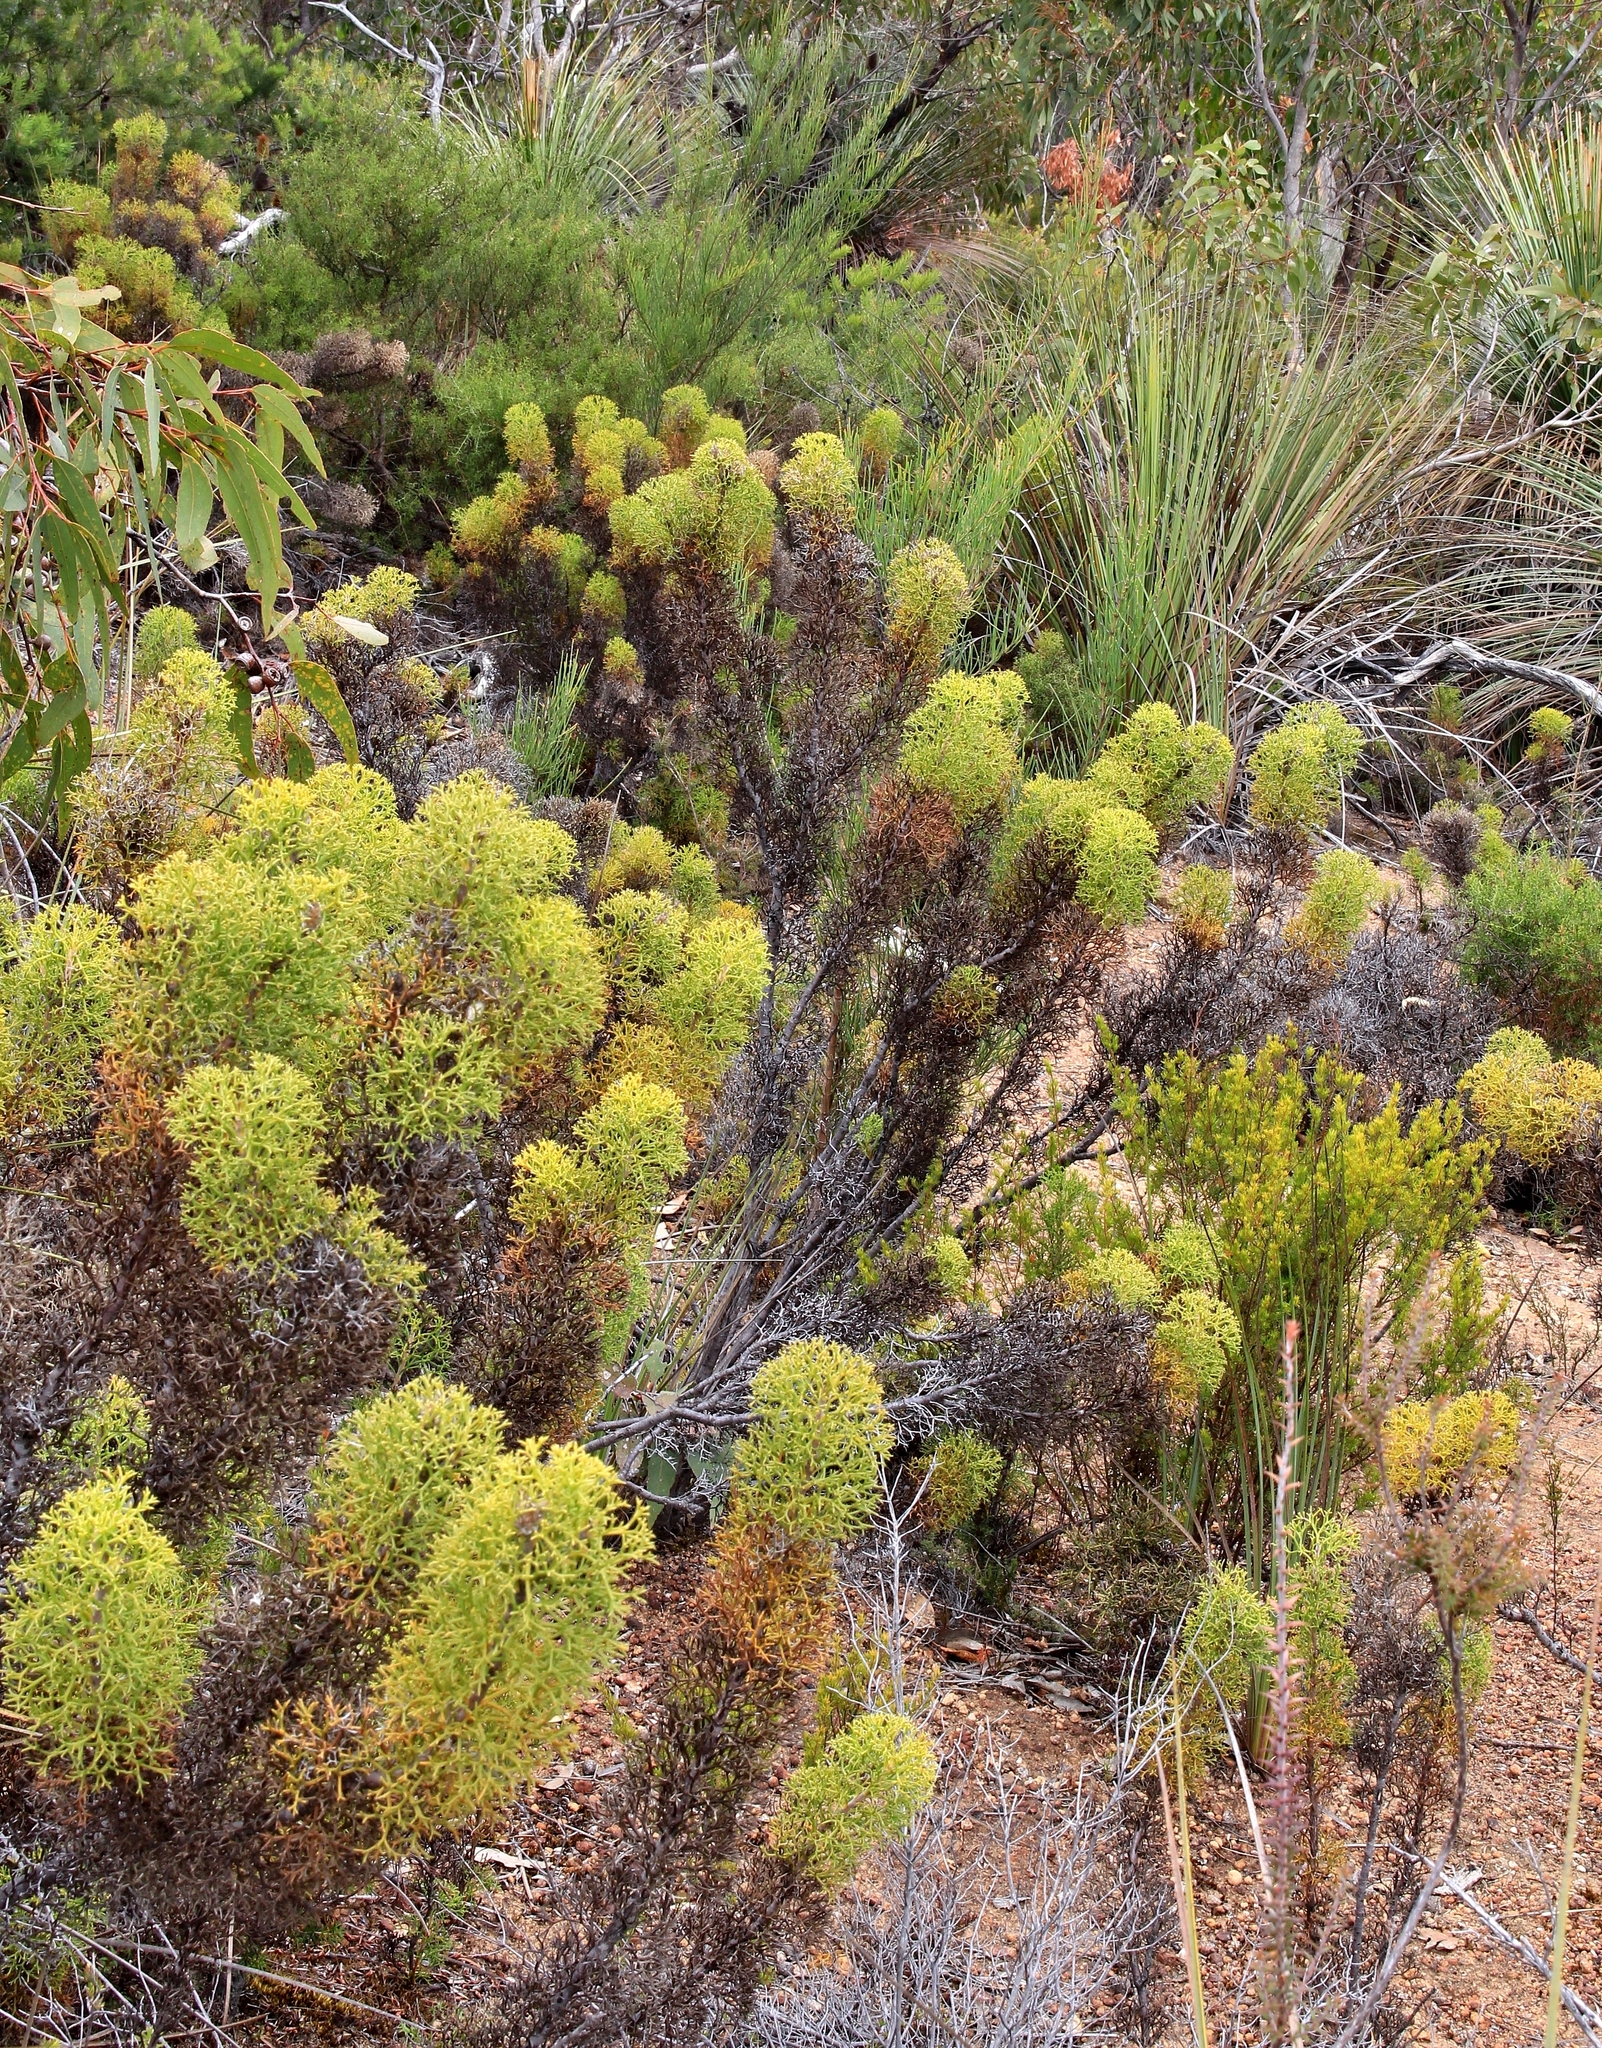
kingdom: Plantae
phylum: Tracheophyta
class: Magnoliopsida
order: Proteales
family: Proteaceae
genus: Isopogon
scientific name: Isopogon ceratophyllus
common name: Horny cone-bush
